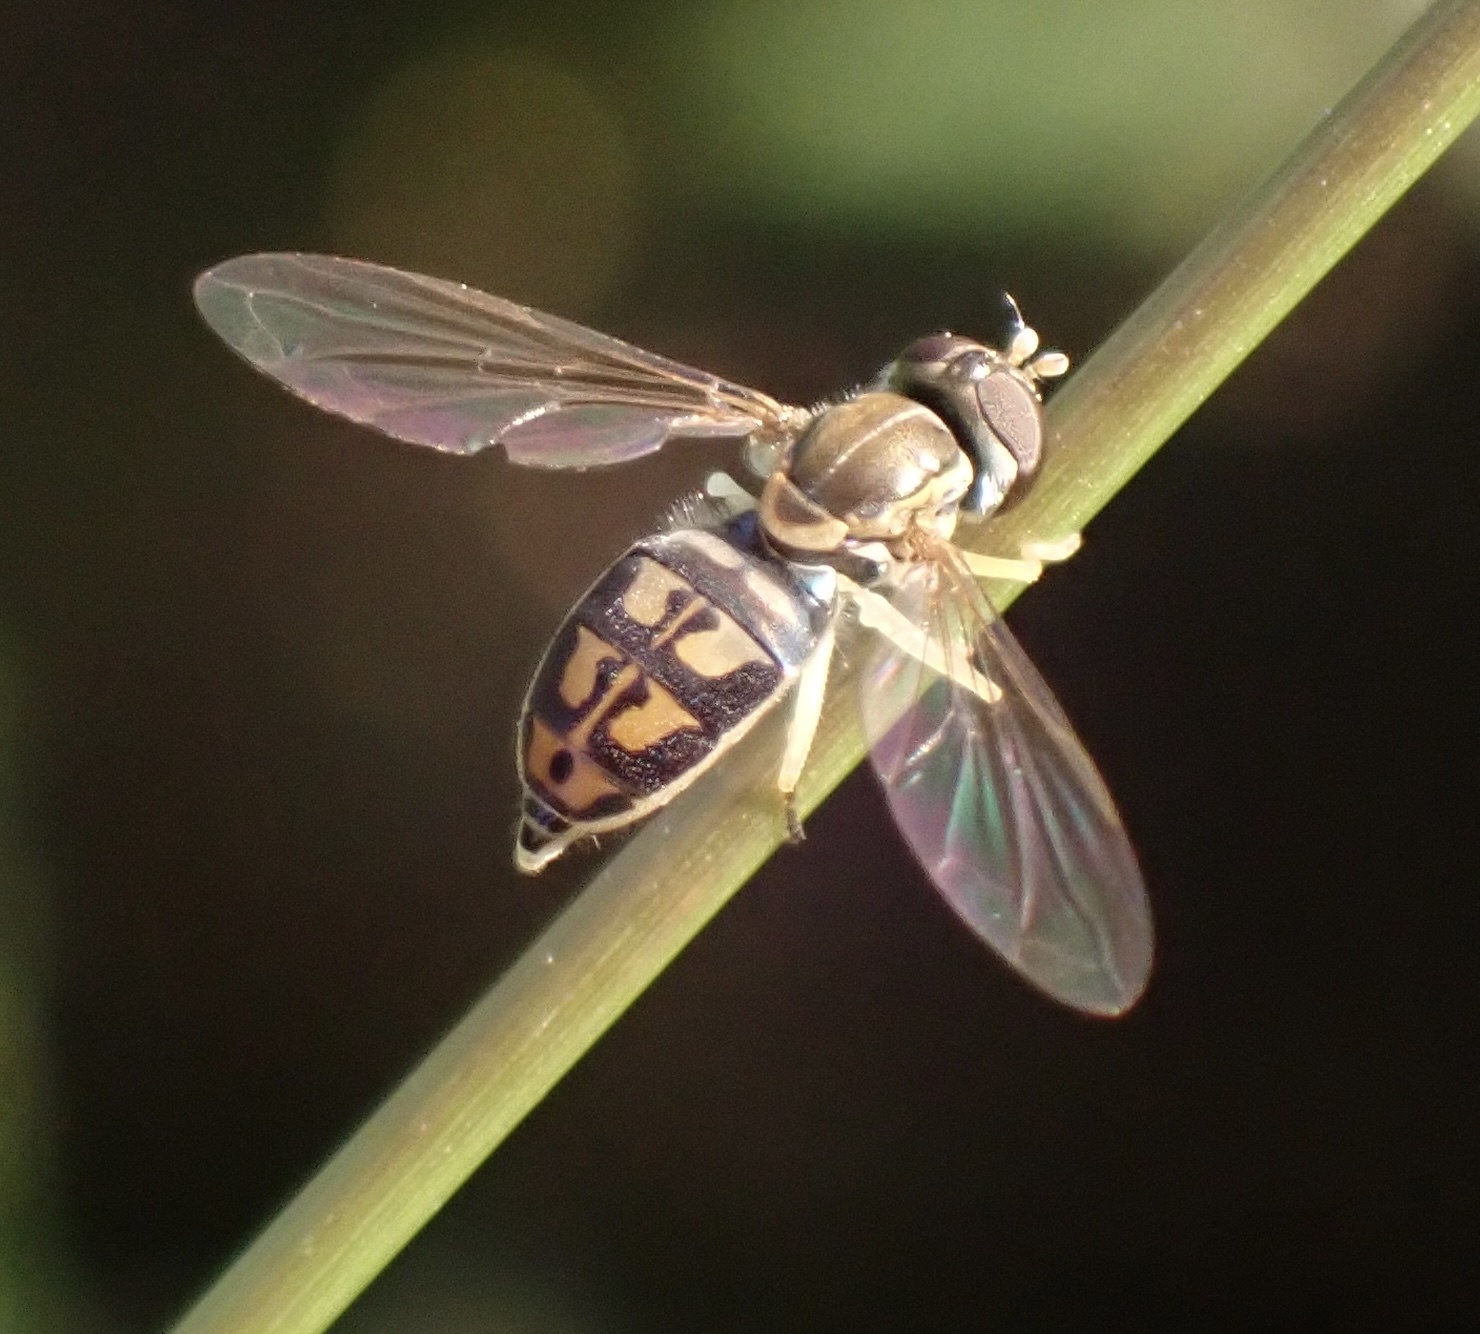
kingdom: Animalia
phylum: Arthropoda
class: Insecta
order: Diptera
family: Syrphidae
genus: Toxomerus
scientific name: Toxomerus marginatus
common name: Syrphid fly
